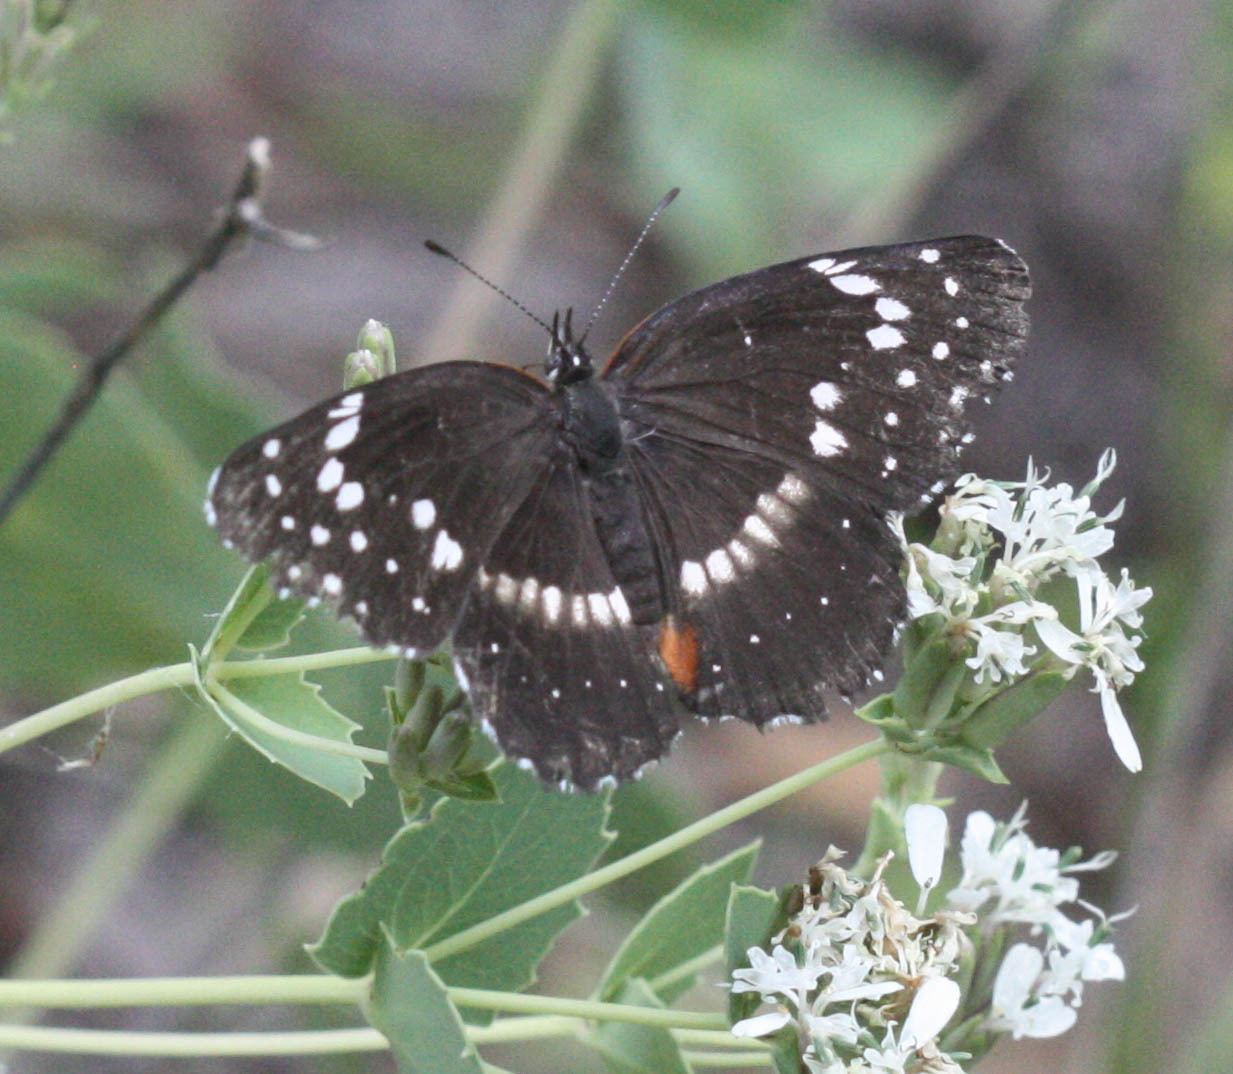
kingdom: Animalia
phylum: Arthropoda
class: Insecta
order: Lepidoptera
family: Nymphalidae
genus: Chlosyne
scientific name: Chlosyne lacinia
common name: Bordered patch
